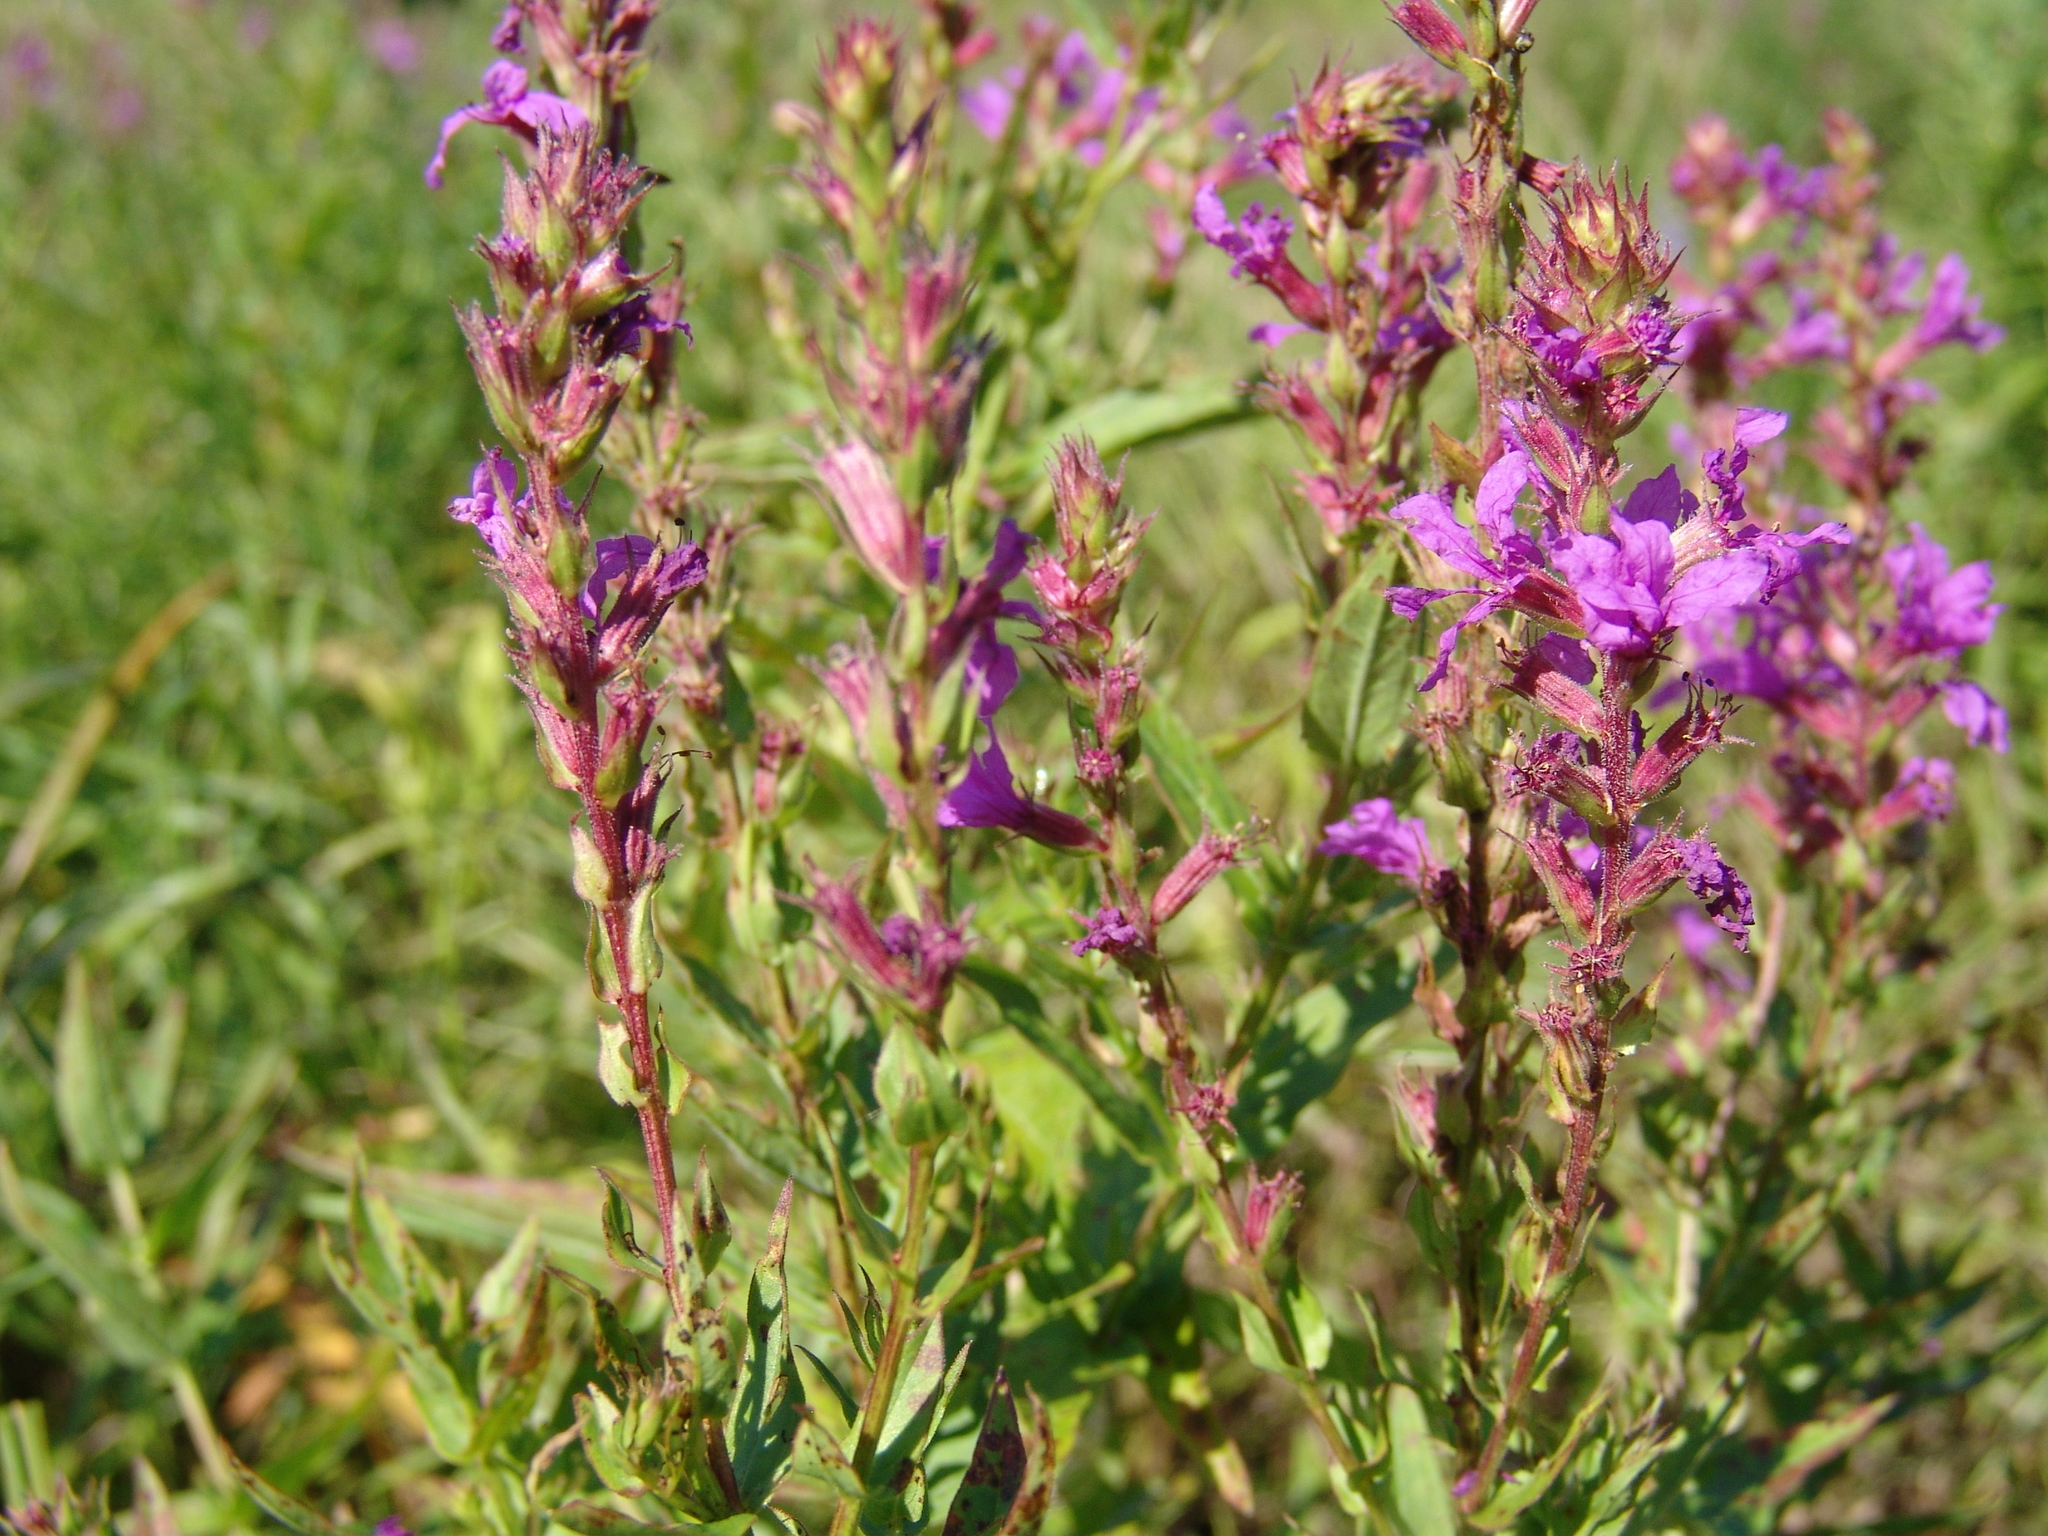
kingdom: Plantae
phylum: Tracheophyta
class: Magnoliopsida
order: Myrtales
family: Lythraceae
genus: Lythrum
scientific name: Lythrum salicaria
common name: Purple loosestrife
